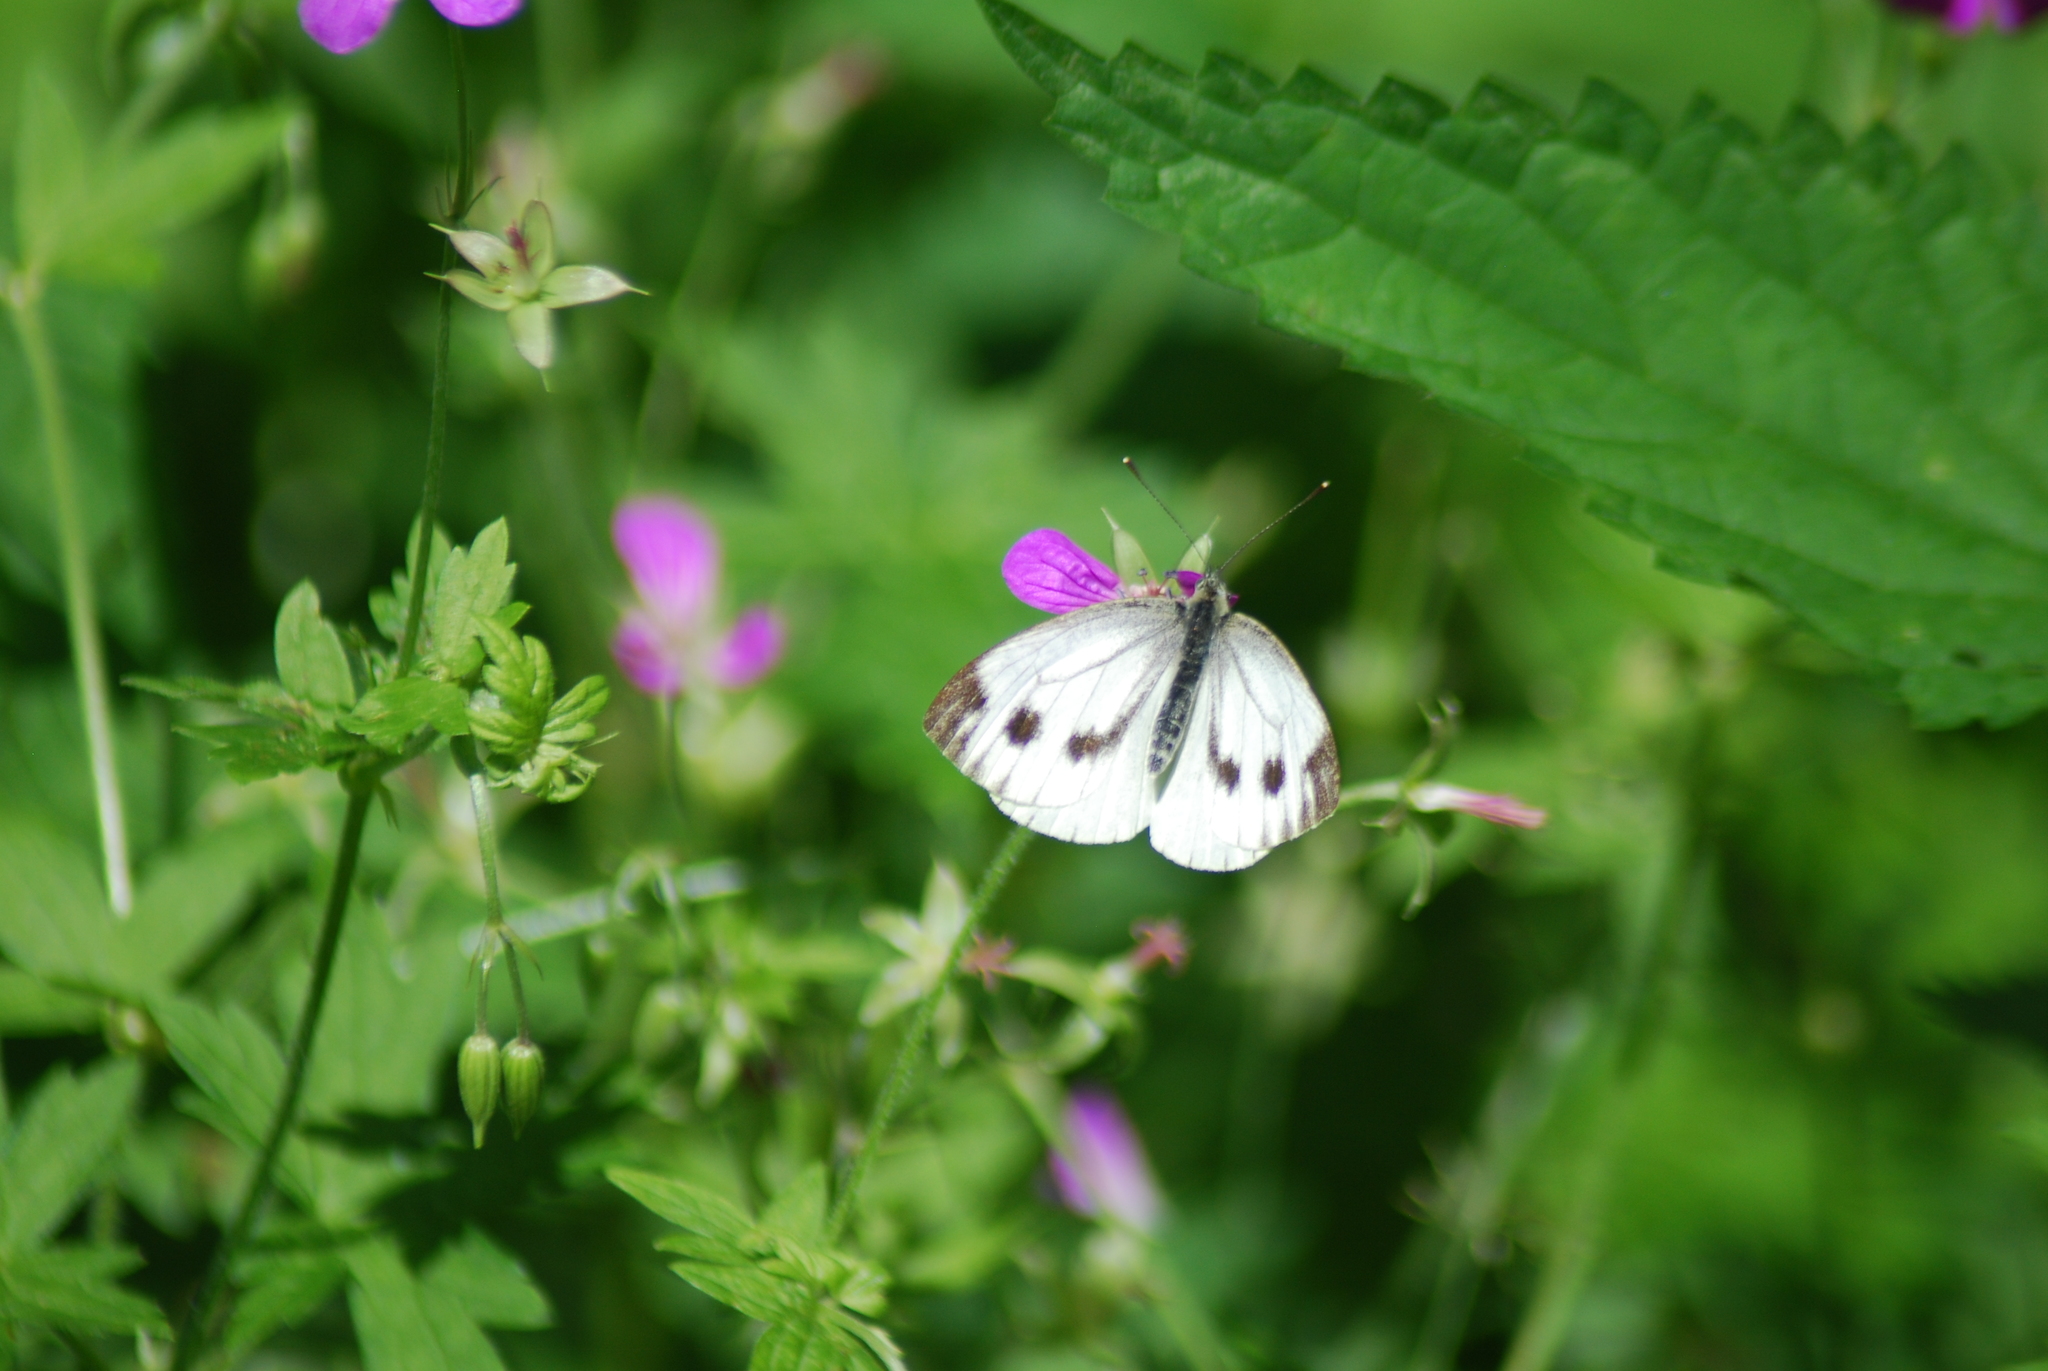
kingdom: Animalia
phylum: Arthropoda
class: Insecta
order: Lepidoptera
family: Pieridae
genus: Pieris
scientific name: Pieris napi
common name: Green-veined white
